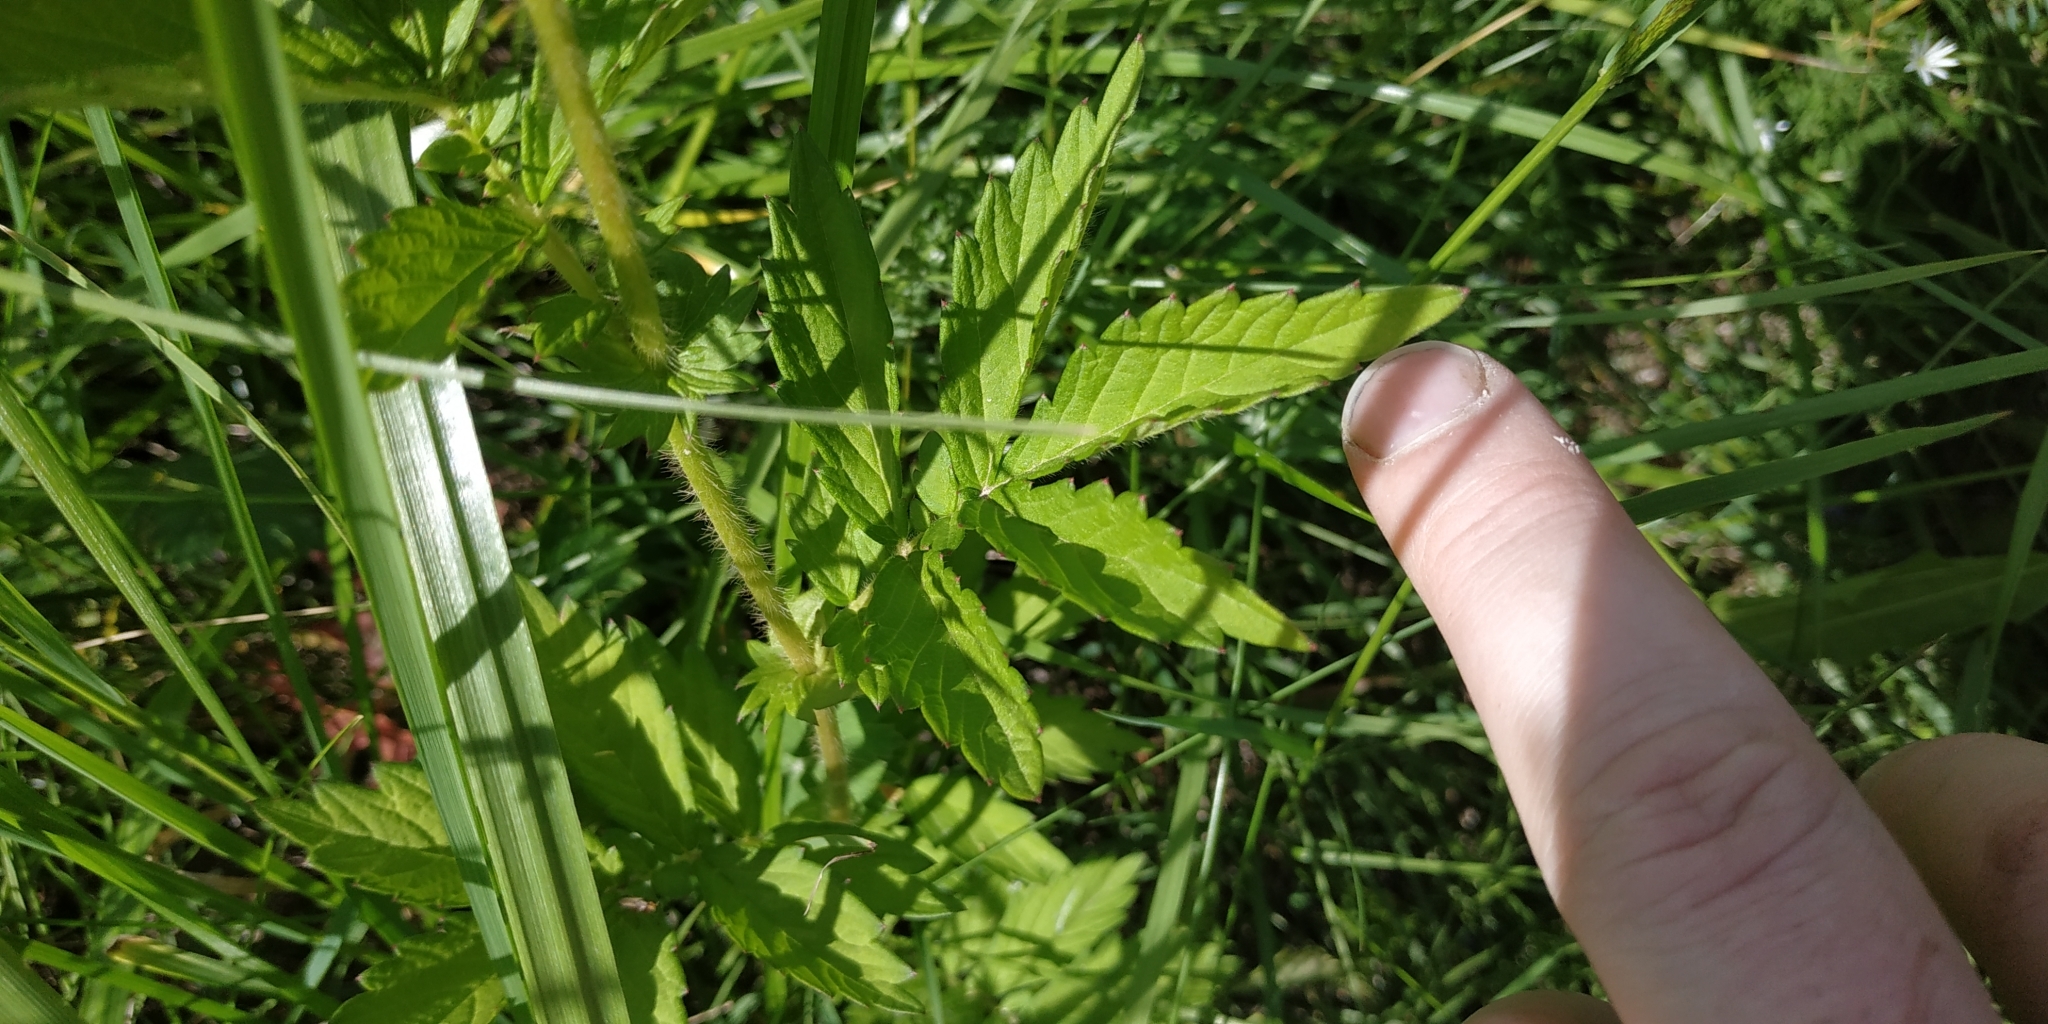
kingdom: Plantae
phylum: Tracheophyta
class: Magnoliopsida
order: Rosales
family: Rosaceae
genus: Agrimonia
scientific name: Agrimonia pilosa
